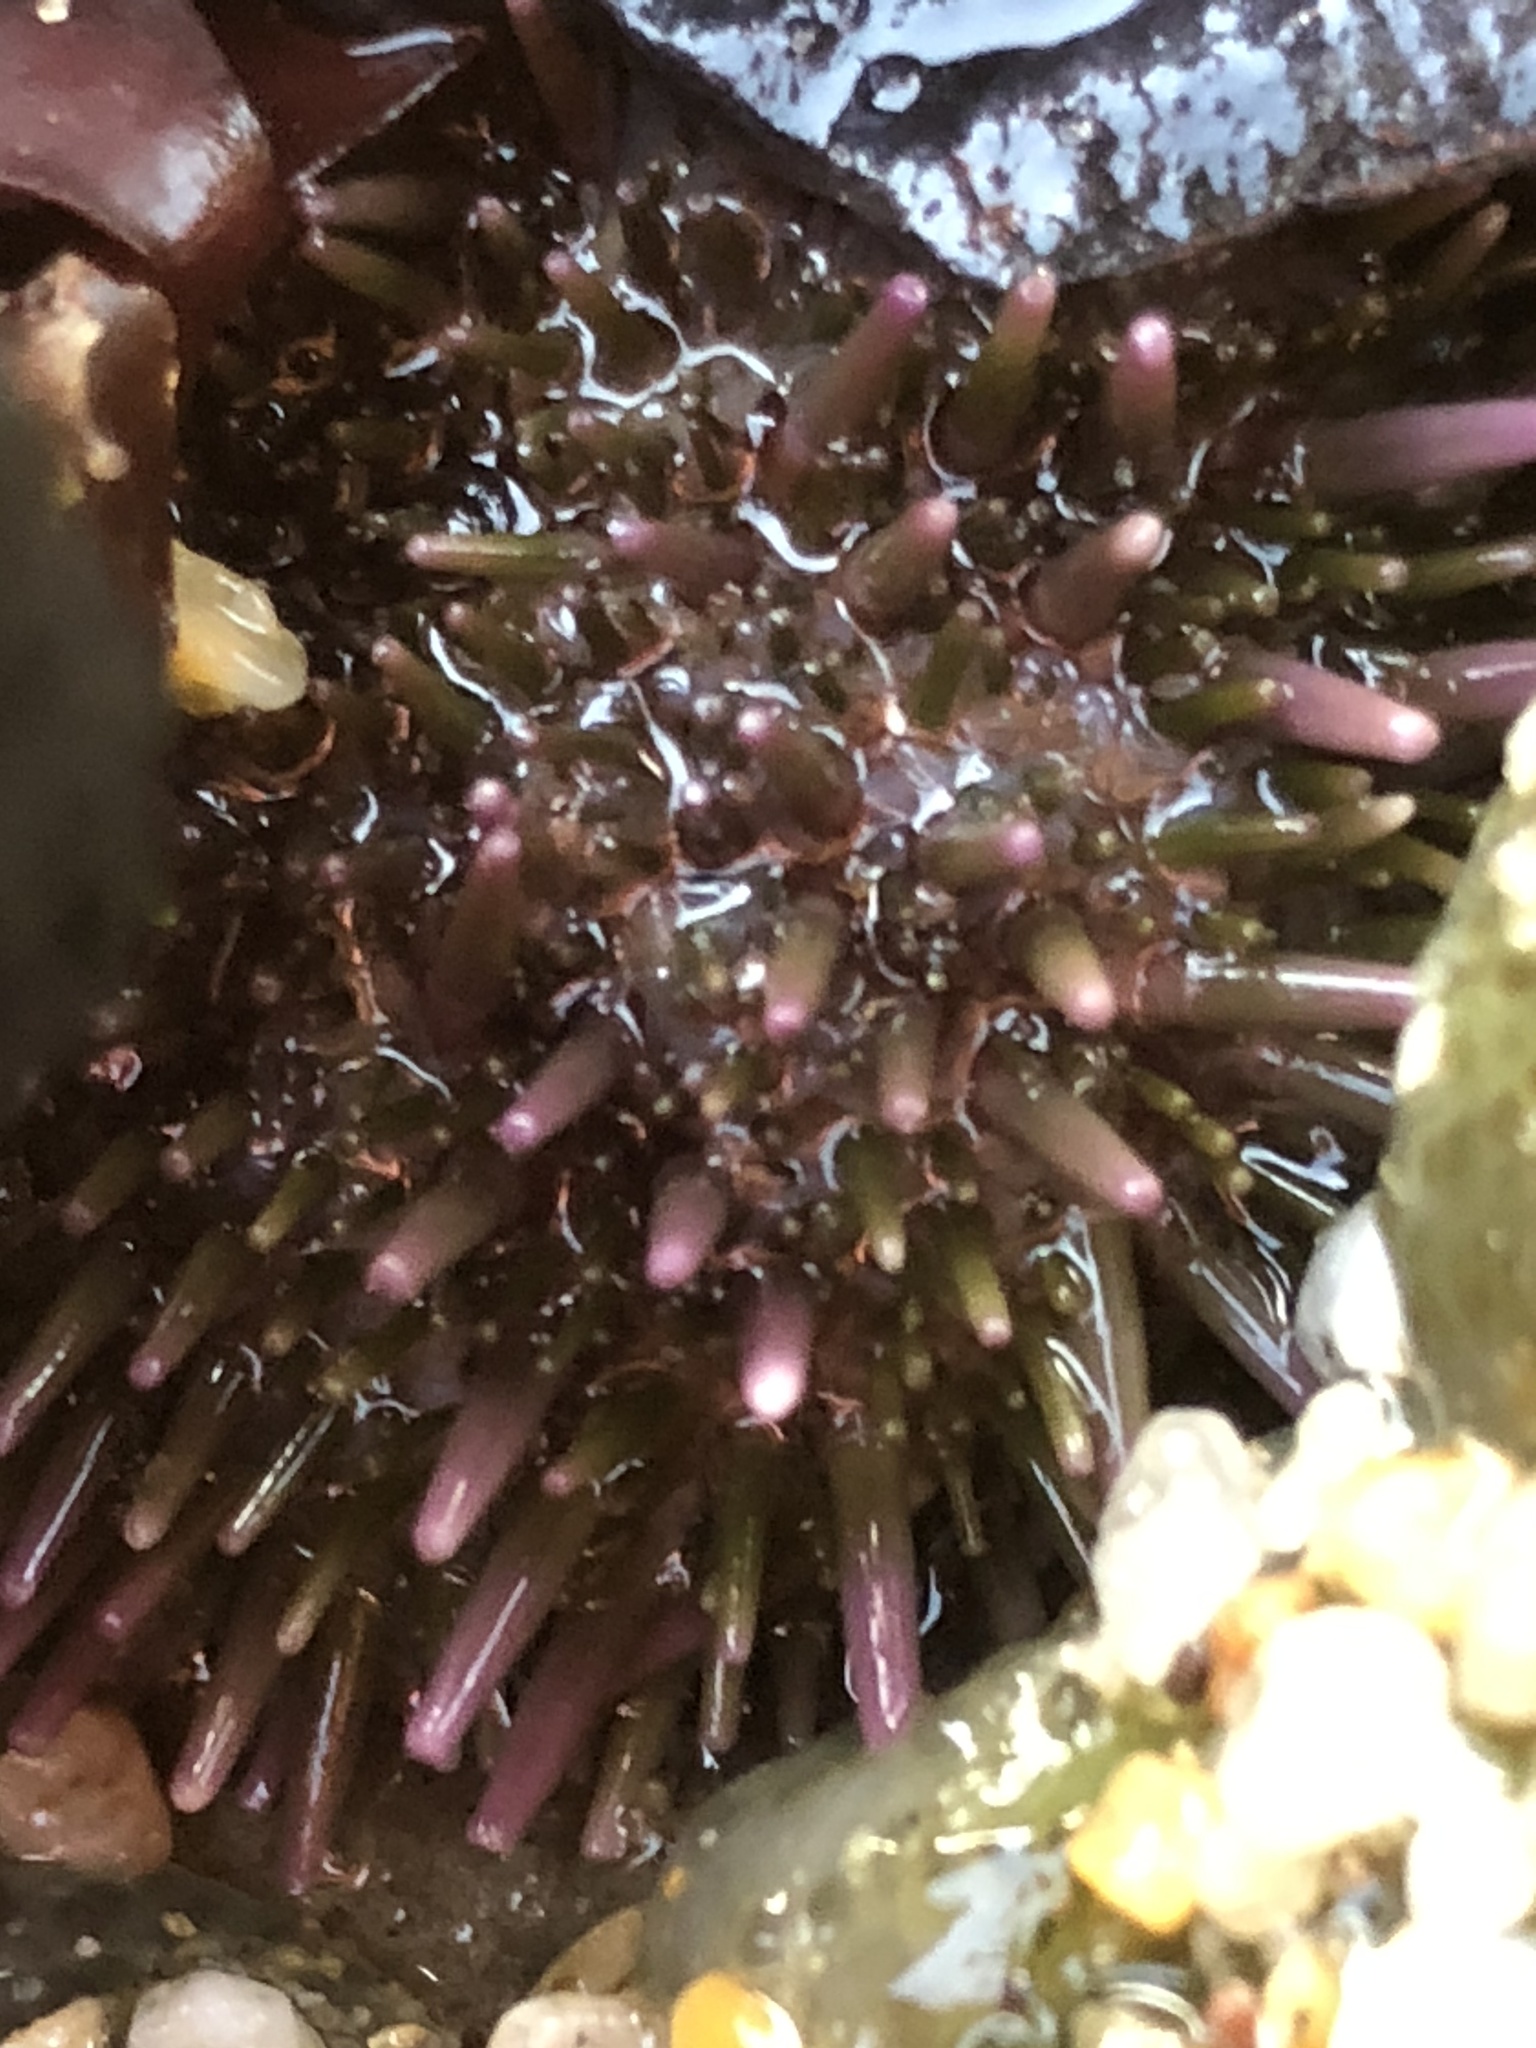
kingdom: Animalia
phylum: Echinodermata
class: Echinoidea
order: Camarodonta
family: Strongylocentrotidae
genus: Strongylocentrotus
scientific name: Strongylocentrotus purpuratus
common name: Purple sea urchin
